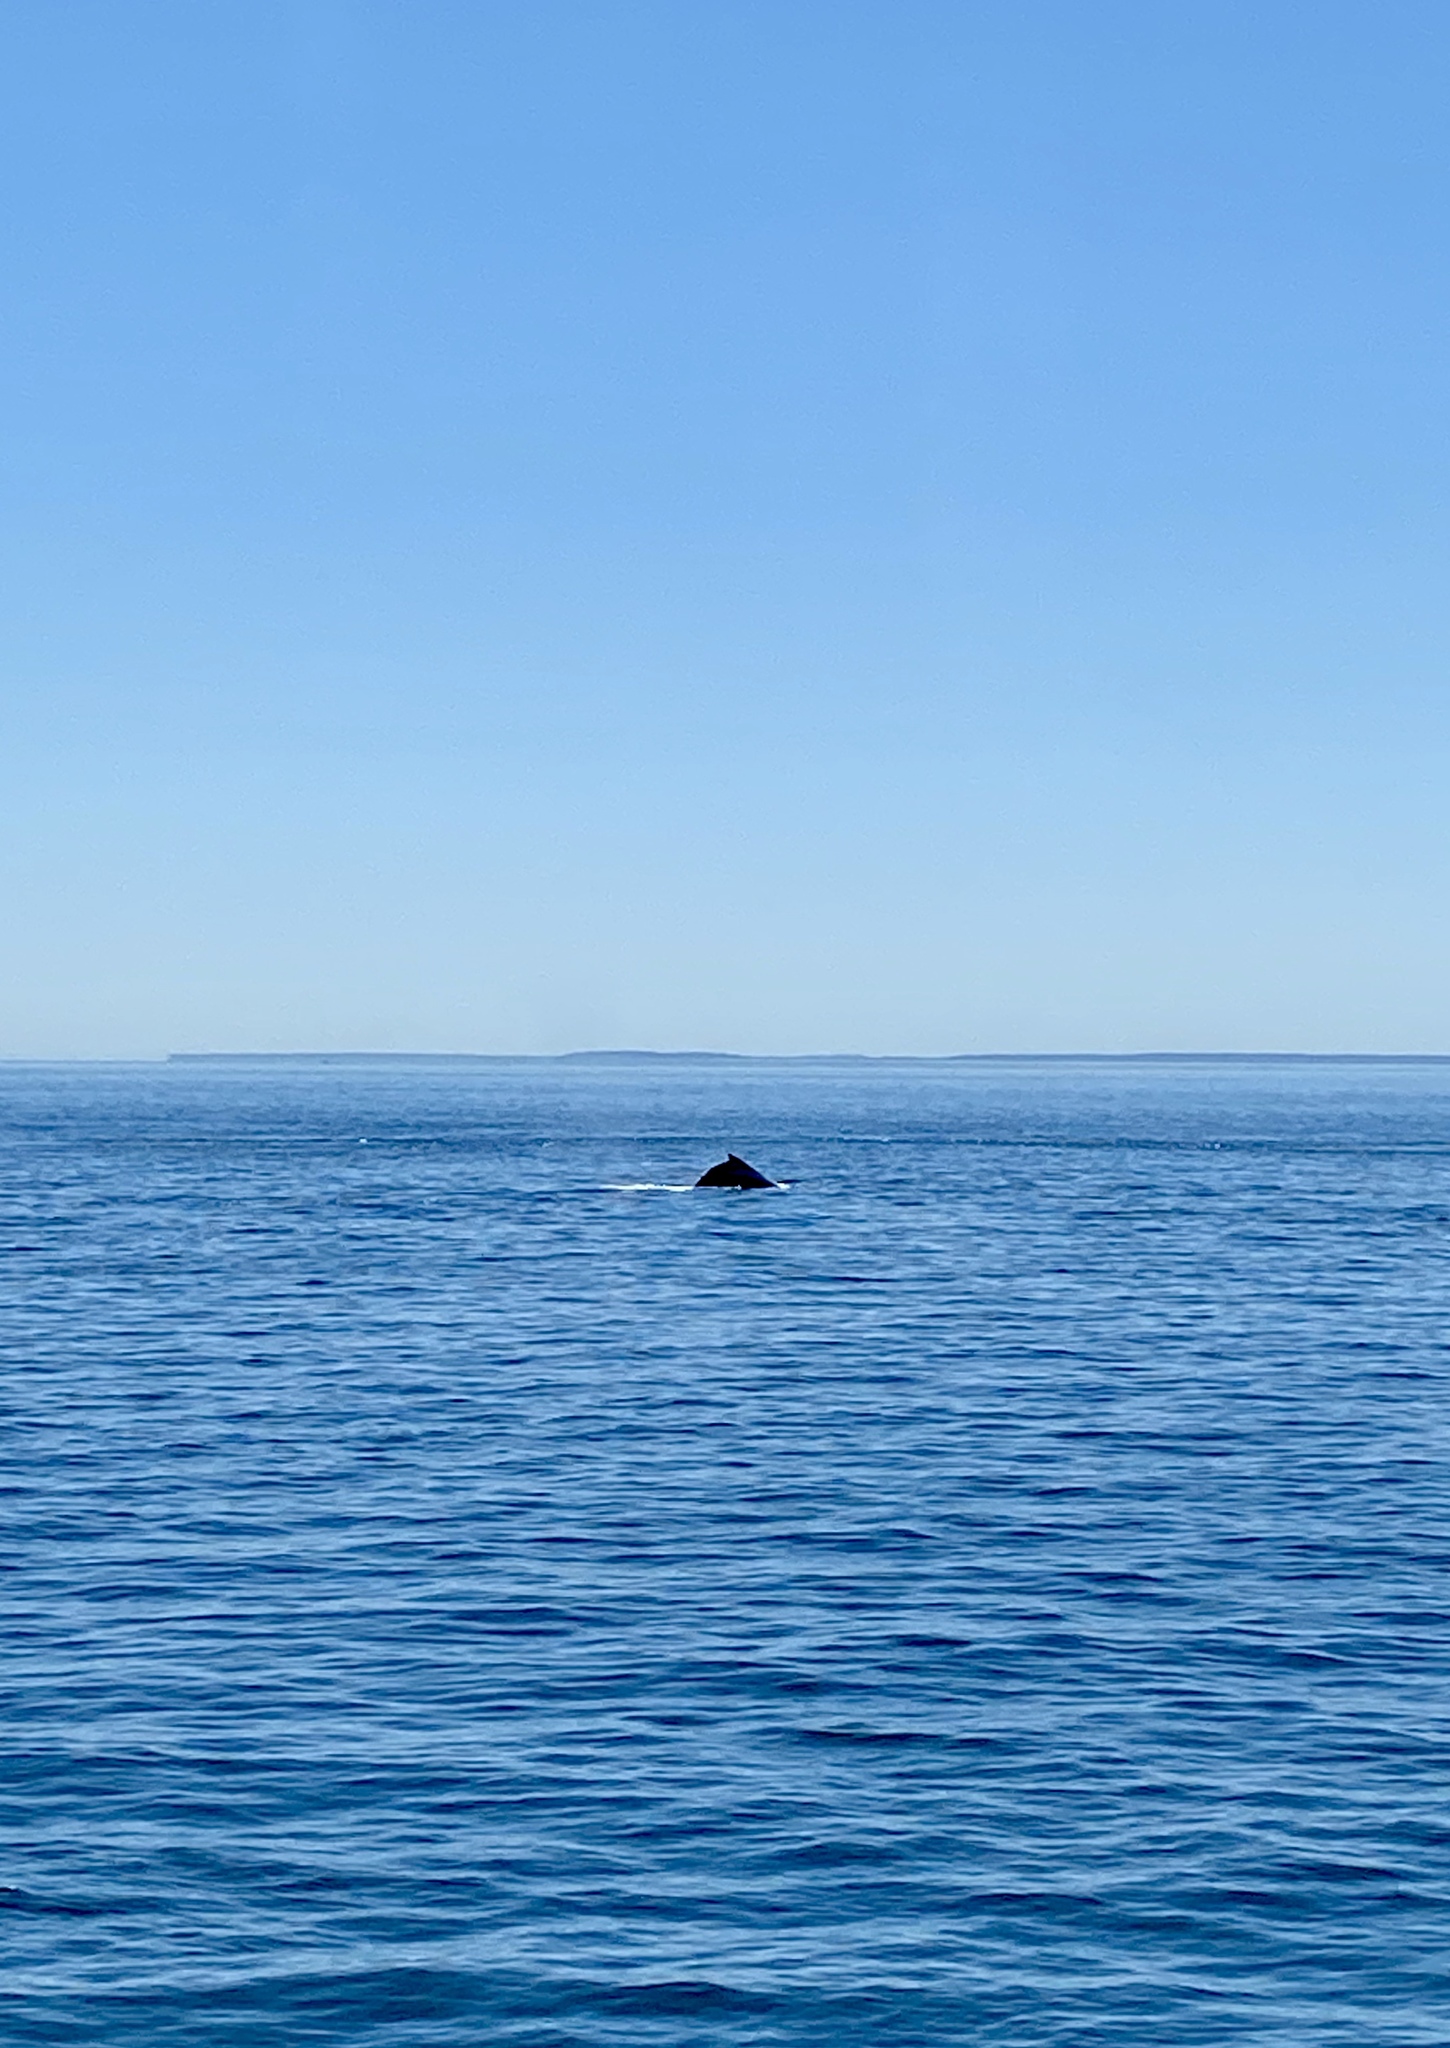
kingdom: Animalia
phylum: Chordata
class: Mammalia
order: Cetacea
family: Balaenopteridae
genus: Megaptera
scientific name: Megaptera novaeangliae
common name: Humpback whale
